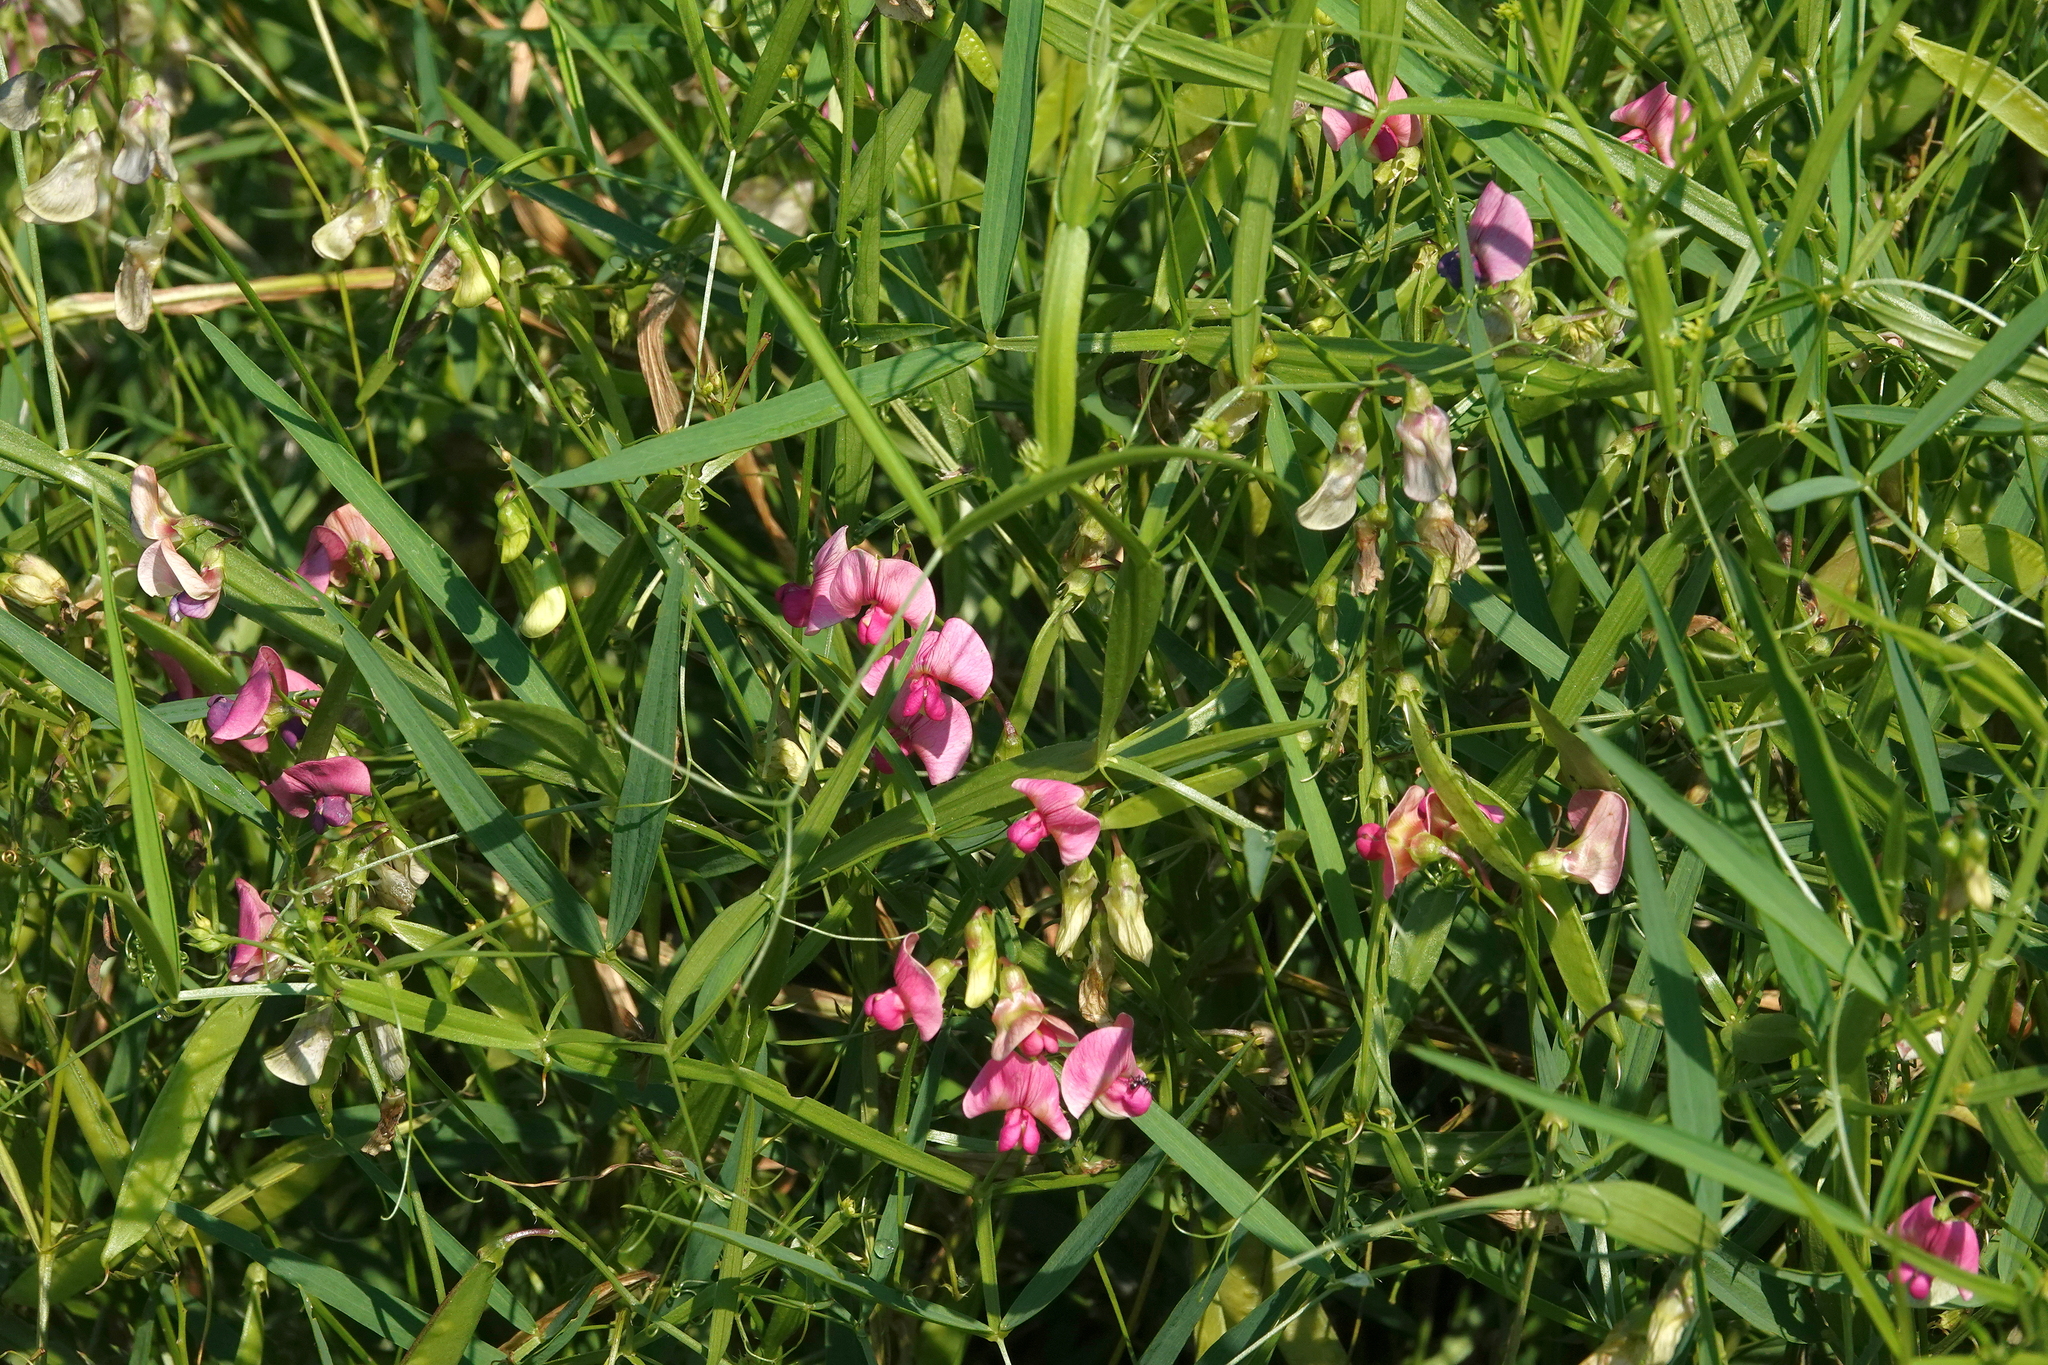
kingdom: Plantae
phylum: Tracheophyta
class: Magnoliopsida
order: Fabales
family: Fabaceae
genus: Lathyrus
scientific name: Lathyrus sylvestris
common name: Flat pea
